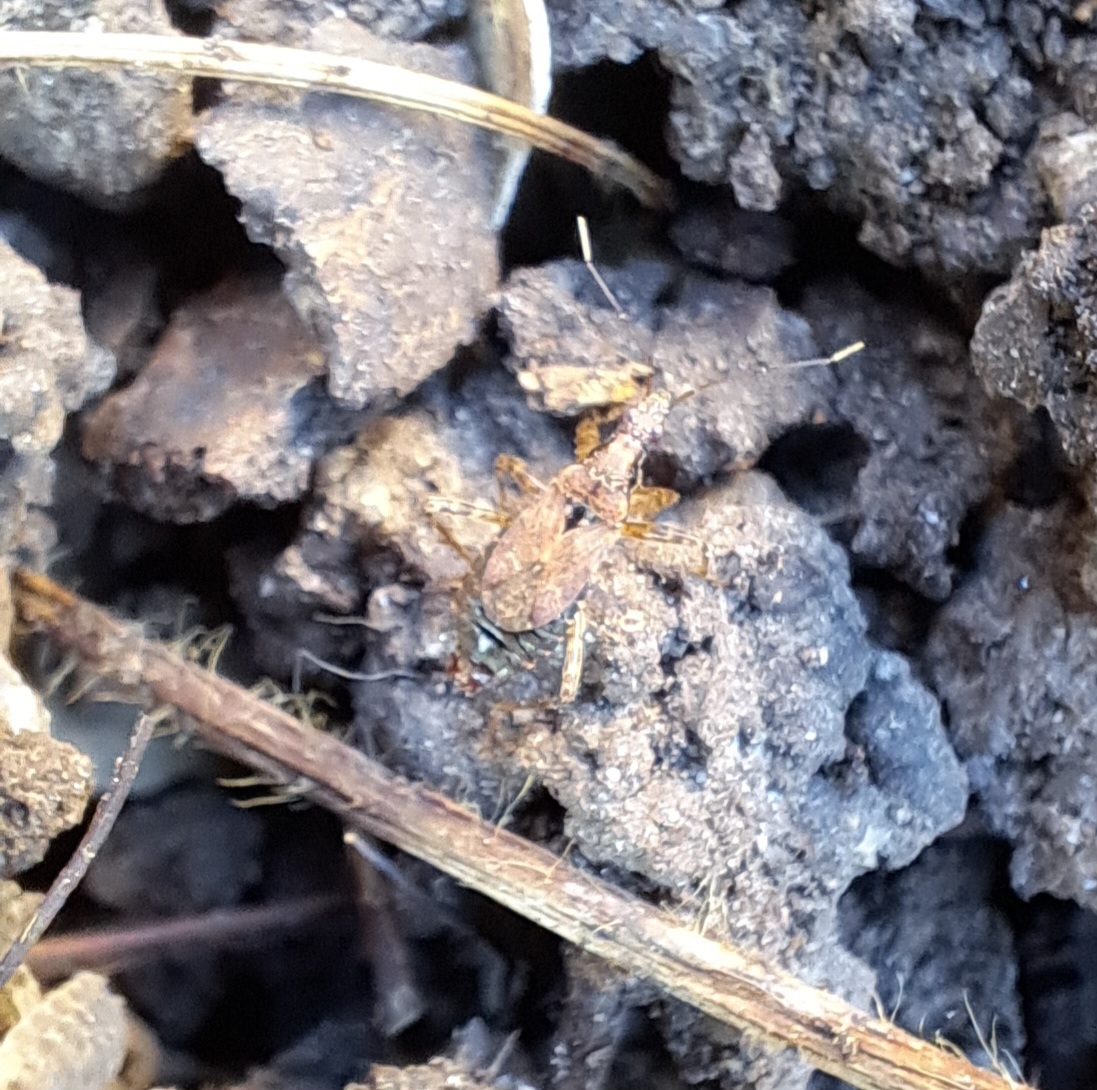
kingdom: Animalia
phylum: Arthropoda
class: Insecta
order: Hemiptera
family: Nabidae
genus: Himacerus
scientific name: Himacerus mirmicoides
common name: Ant damsel bug
